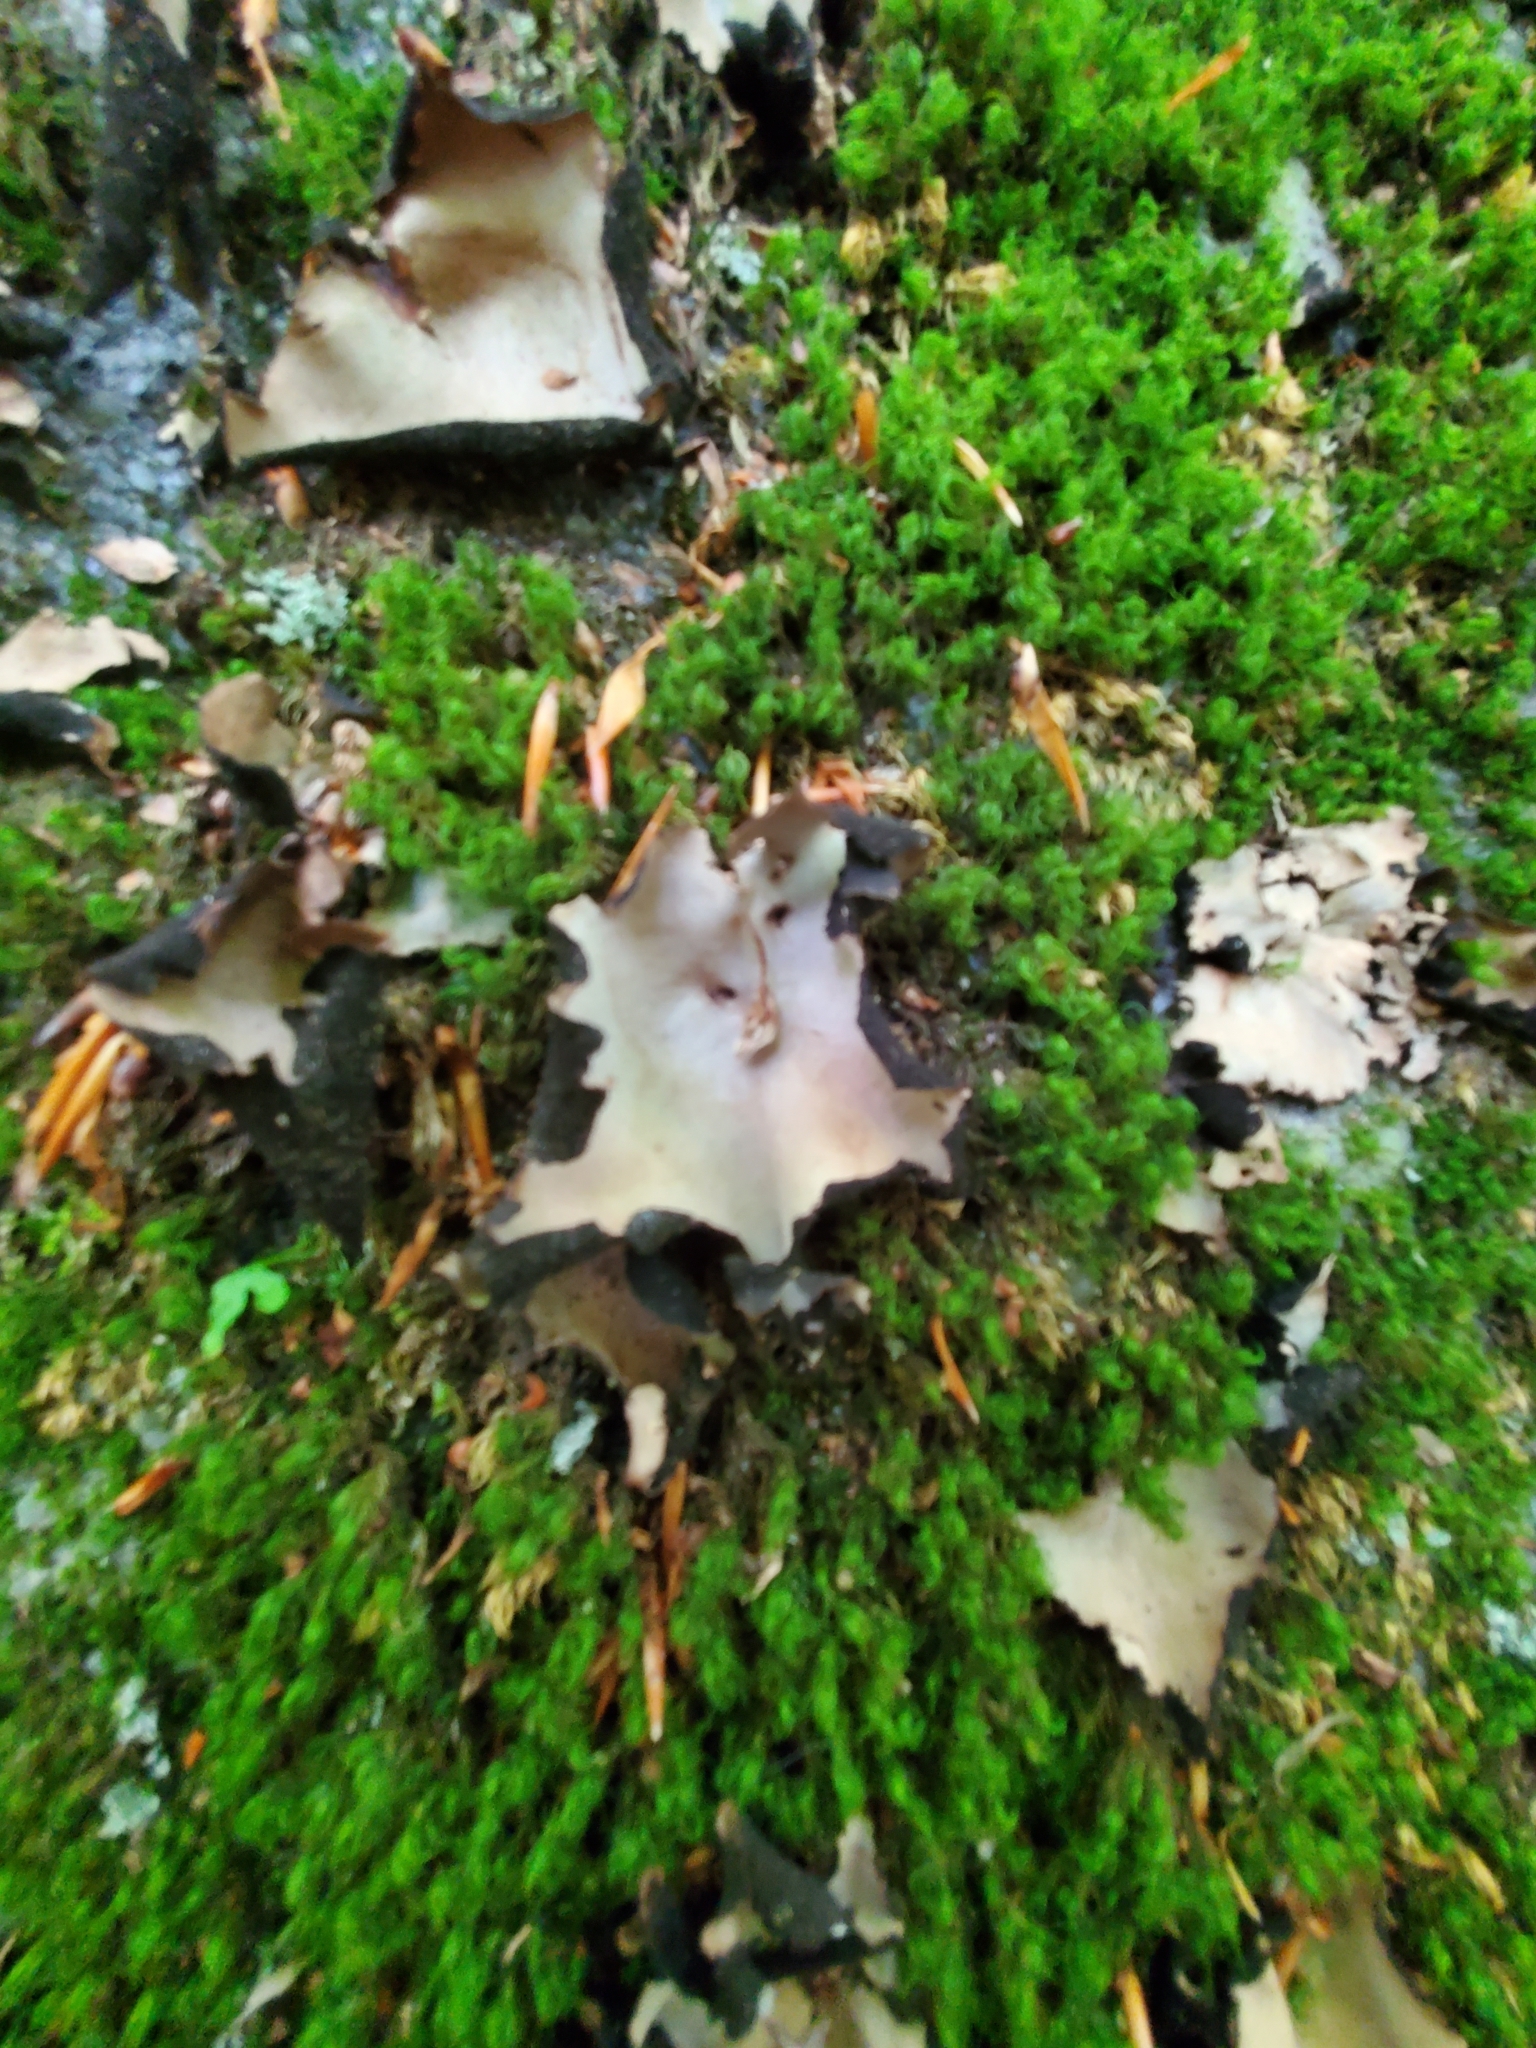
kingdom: Fungi
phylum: Ascomycota
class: Lecanoromycetes
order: Umbilicariales
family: Umbilicariaceae
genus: Umbilicaria
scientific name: Umbilicaria mammulata
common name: Smooth rock tripe
